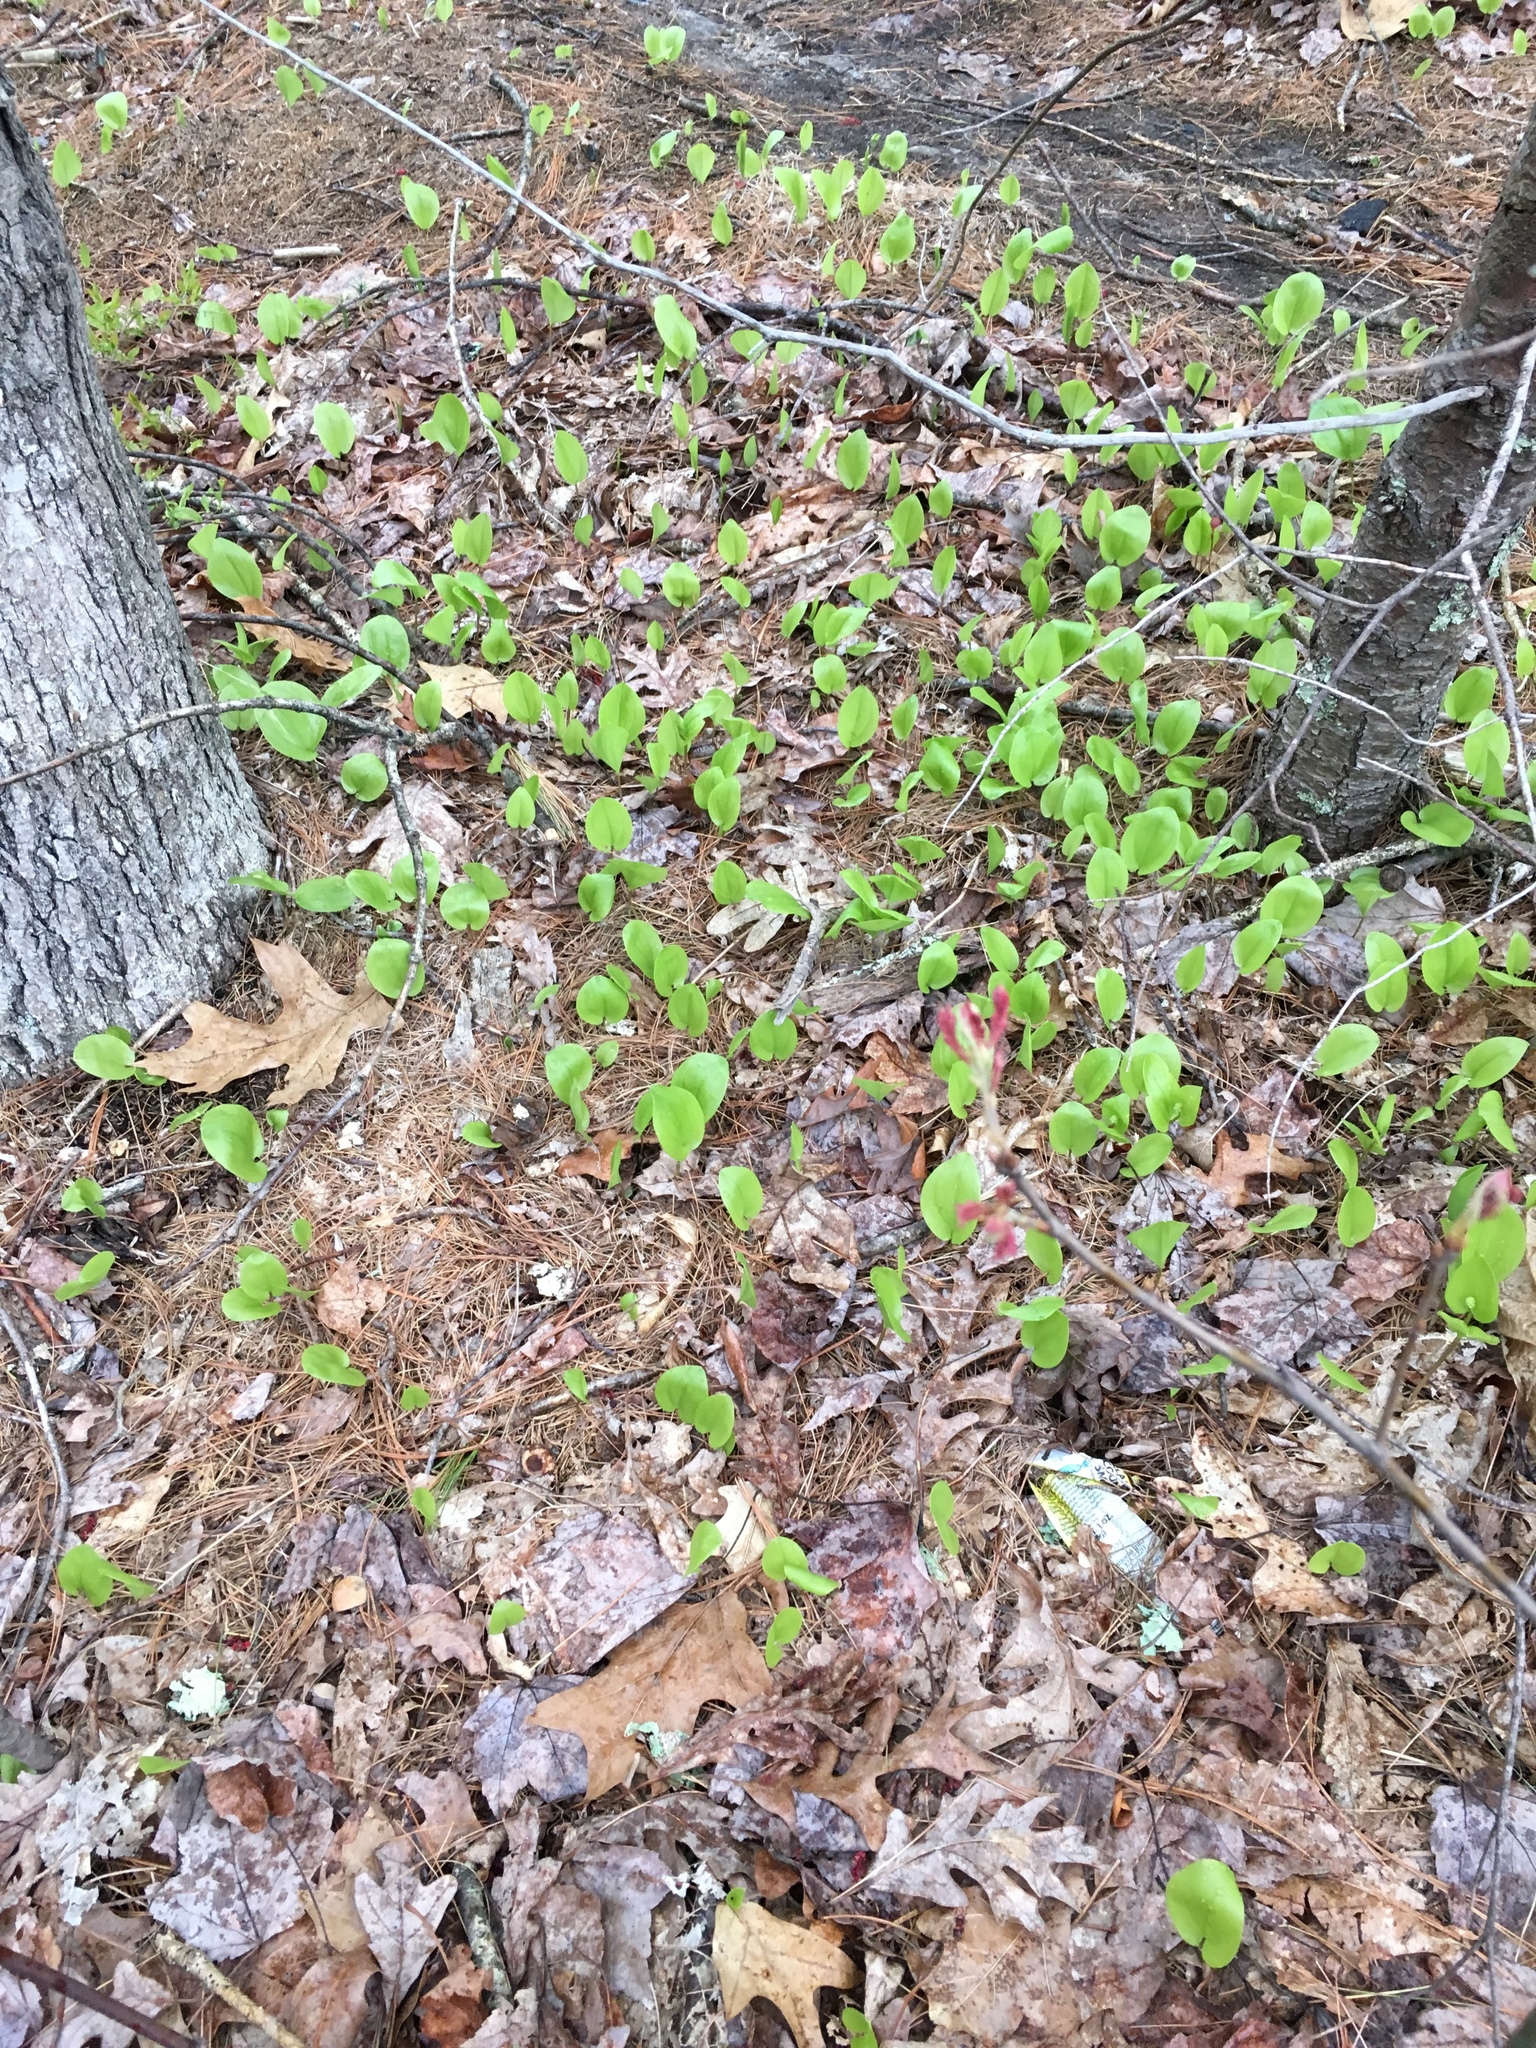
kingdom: Plantae
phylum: Tracheophyta
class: Liliopsida
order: Asparagales
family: Asparagaceae
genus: Maianthemum
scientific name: Maianthemum canadense
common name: False lily-of-the-valley
